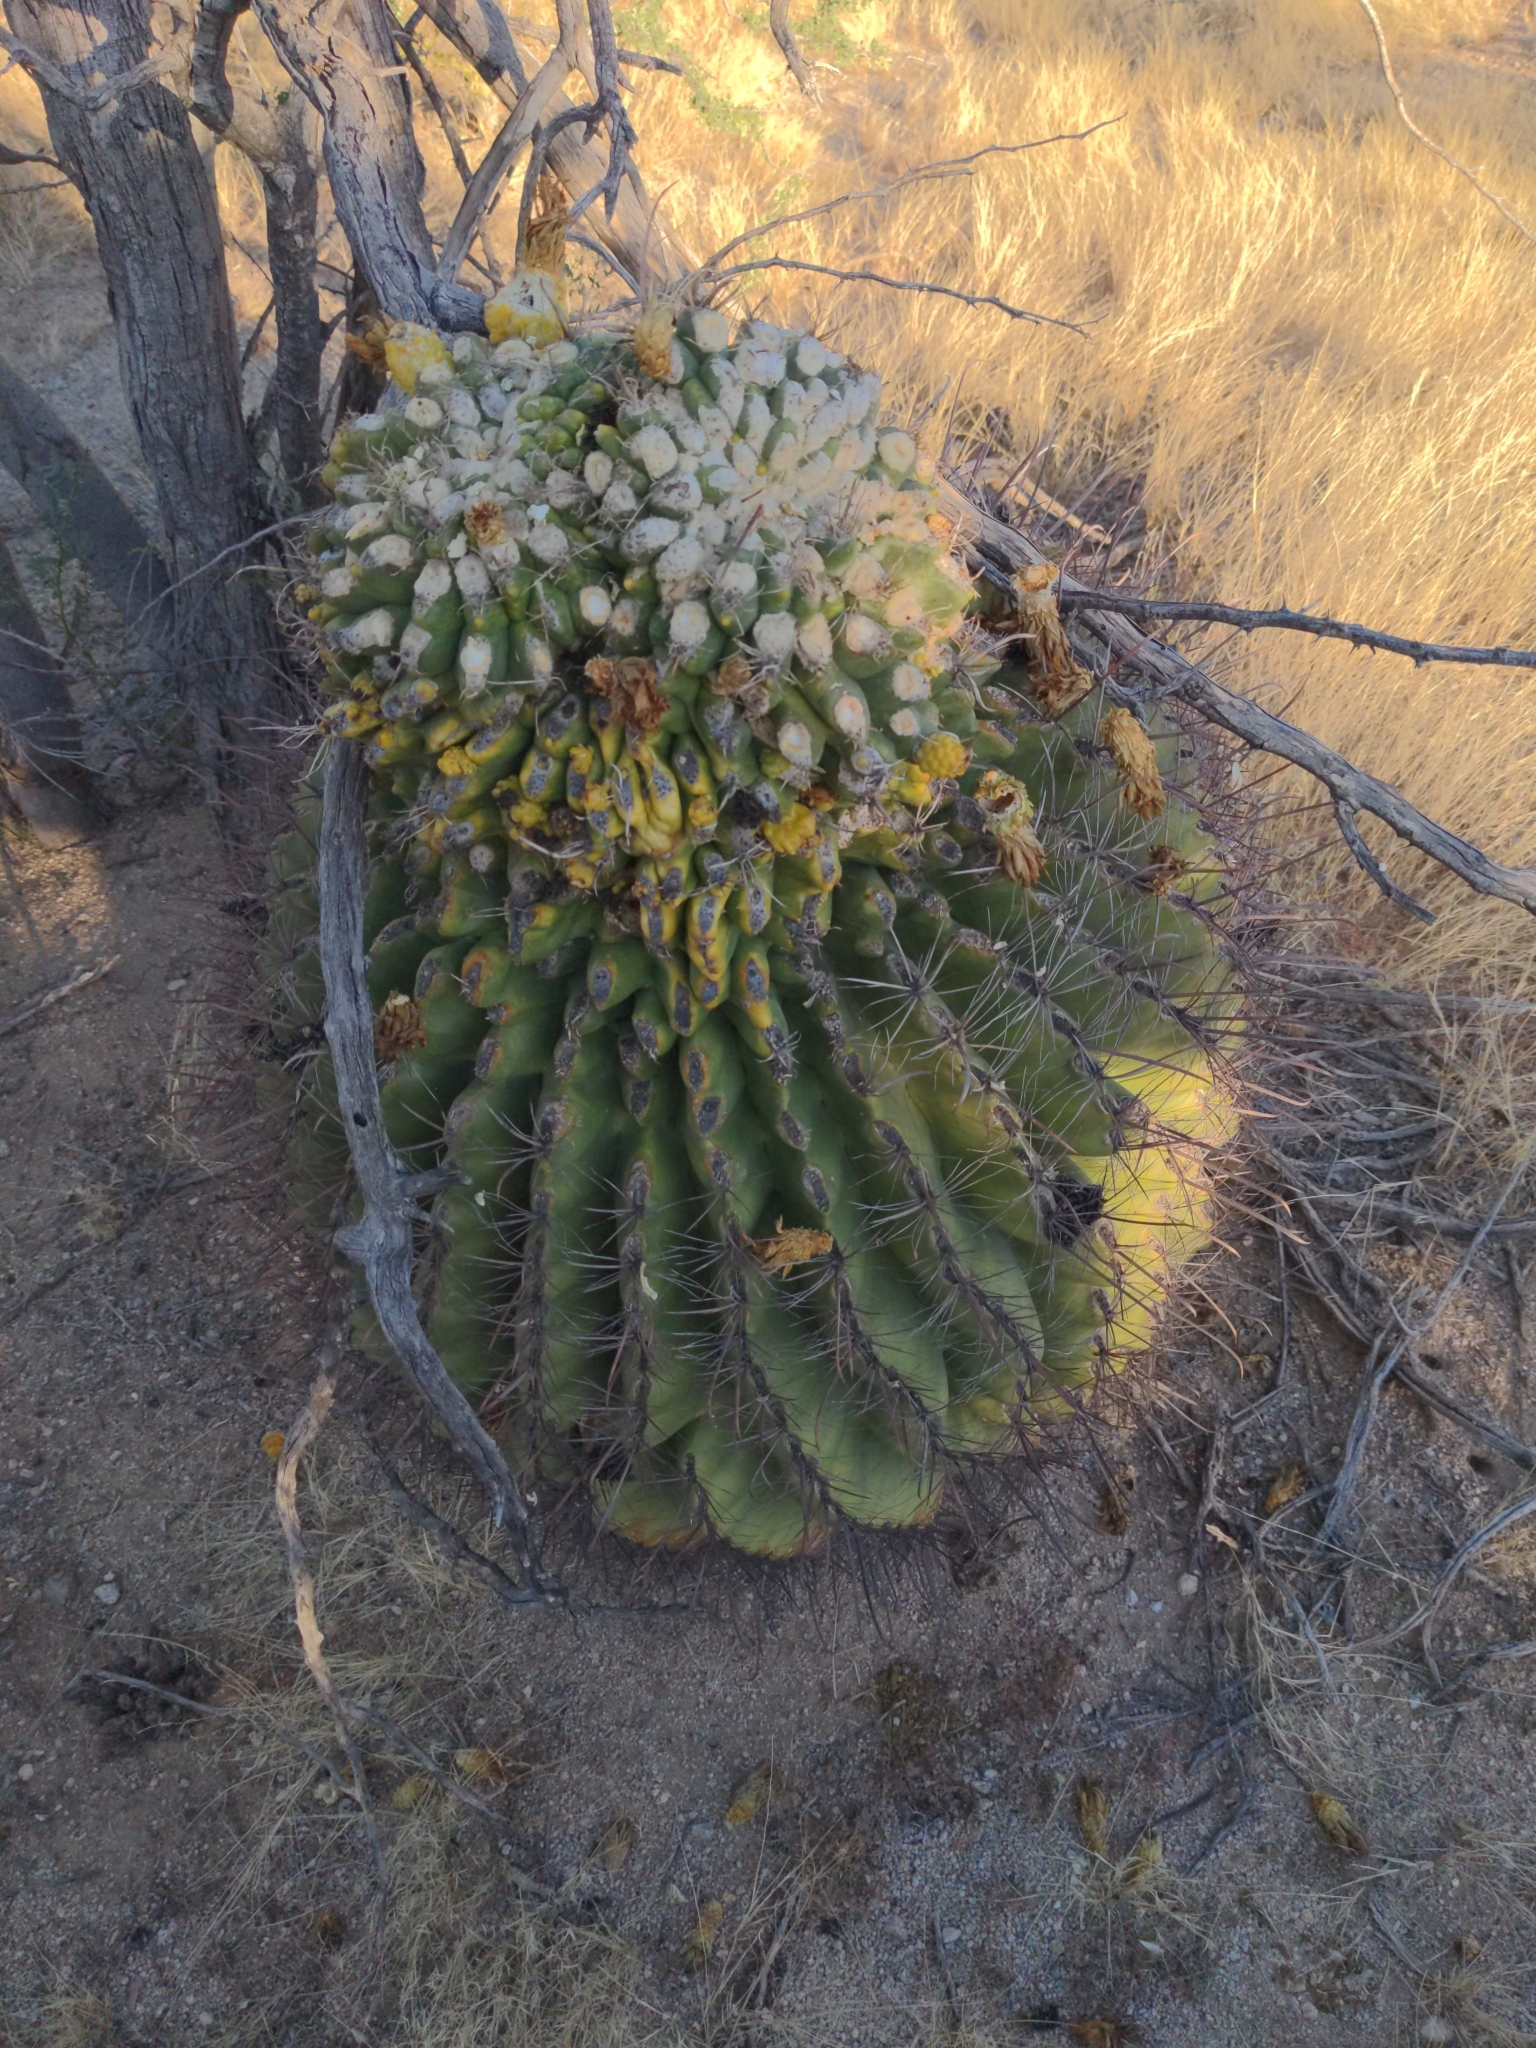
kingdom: Plantae
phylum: Tracheophyta
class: Magnoliopsida
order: Caryophyllales
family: Cactaceae
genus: Ferocactus
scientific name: Ferocactus wislizeni
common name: Candy barrel cactus
